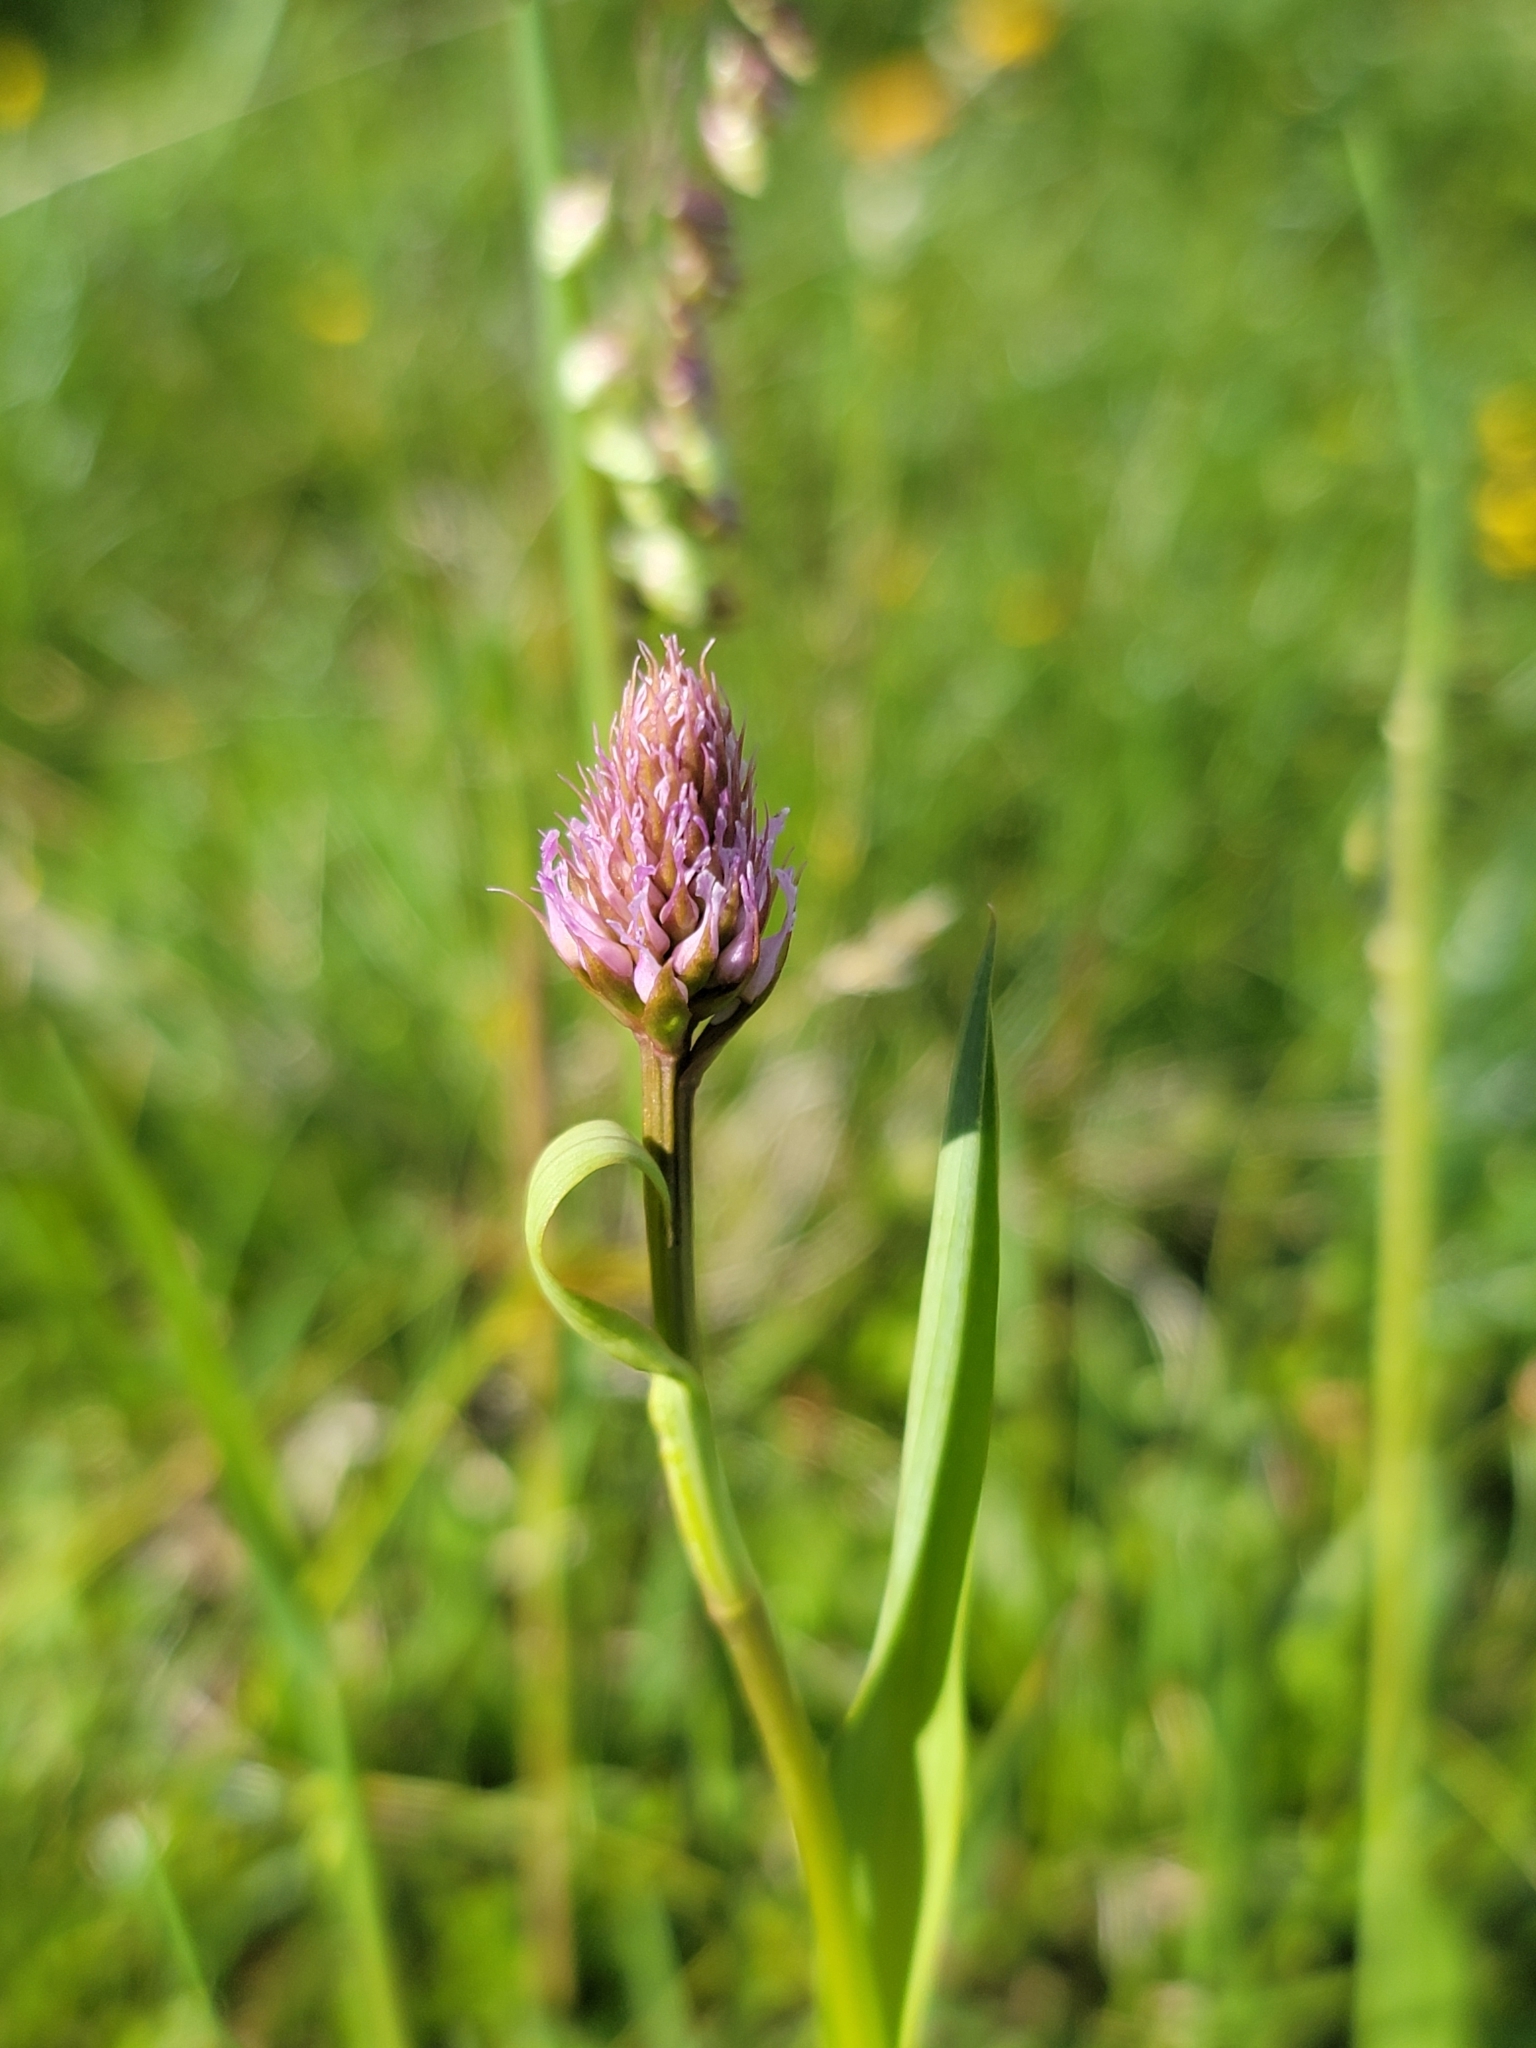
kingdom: Plantae
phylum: Tracheophyta
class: Liliopsida
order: Asparagales
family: Orchidaceae
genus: Traunsteinera
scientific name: Traunsteinera globosa
